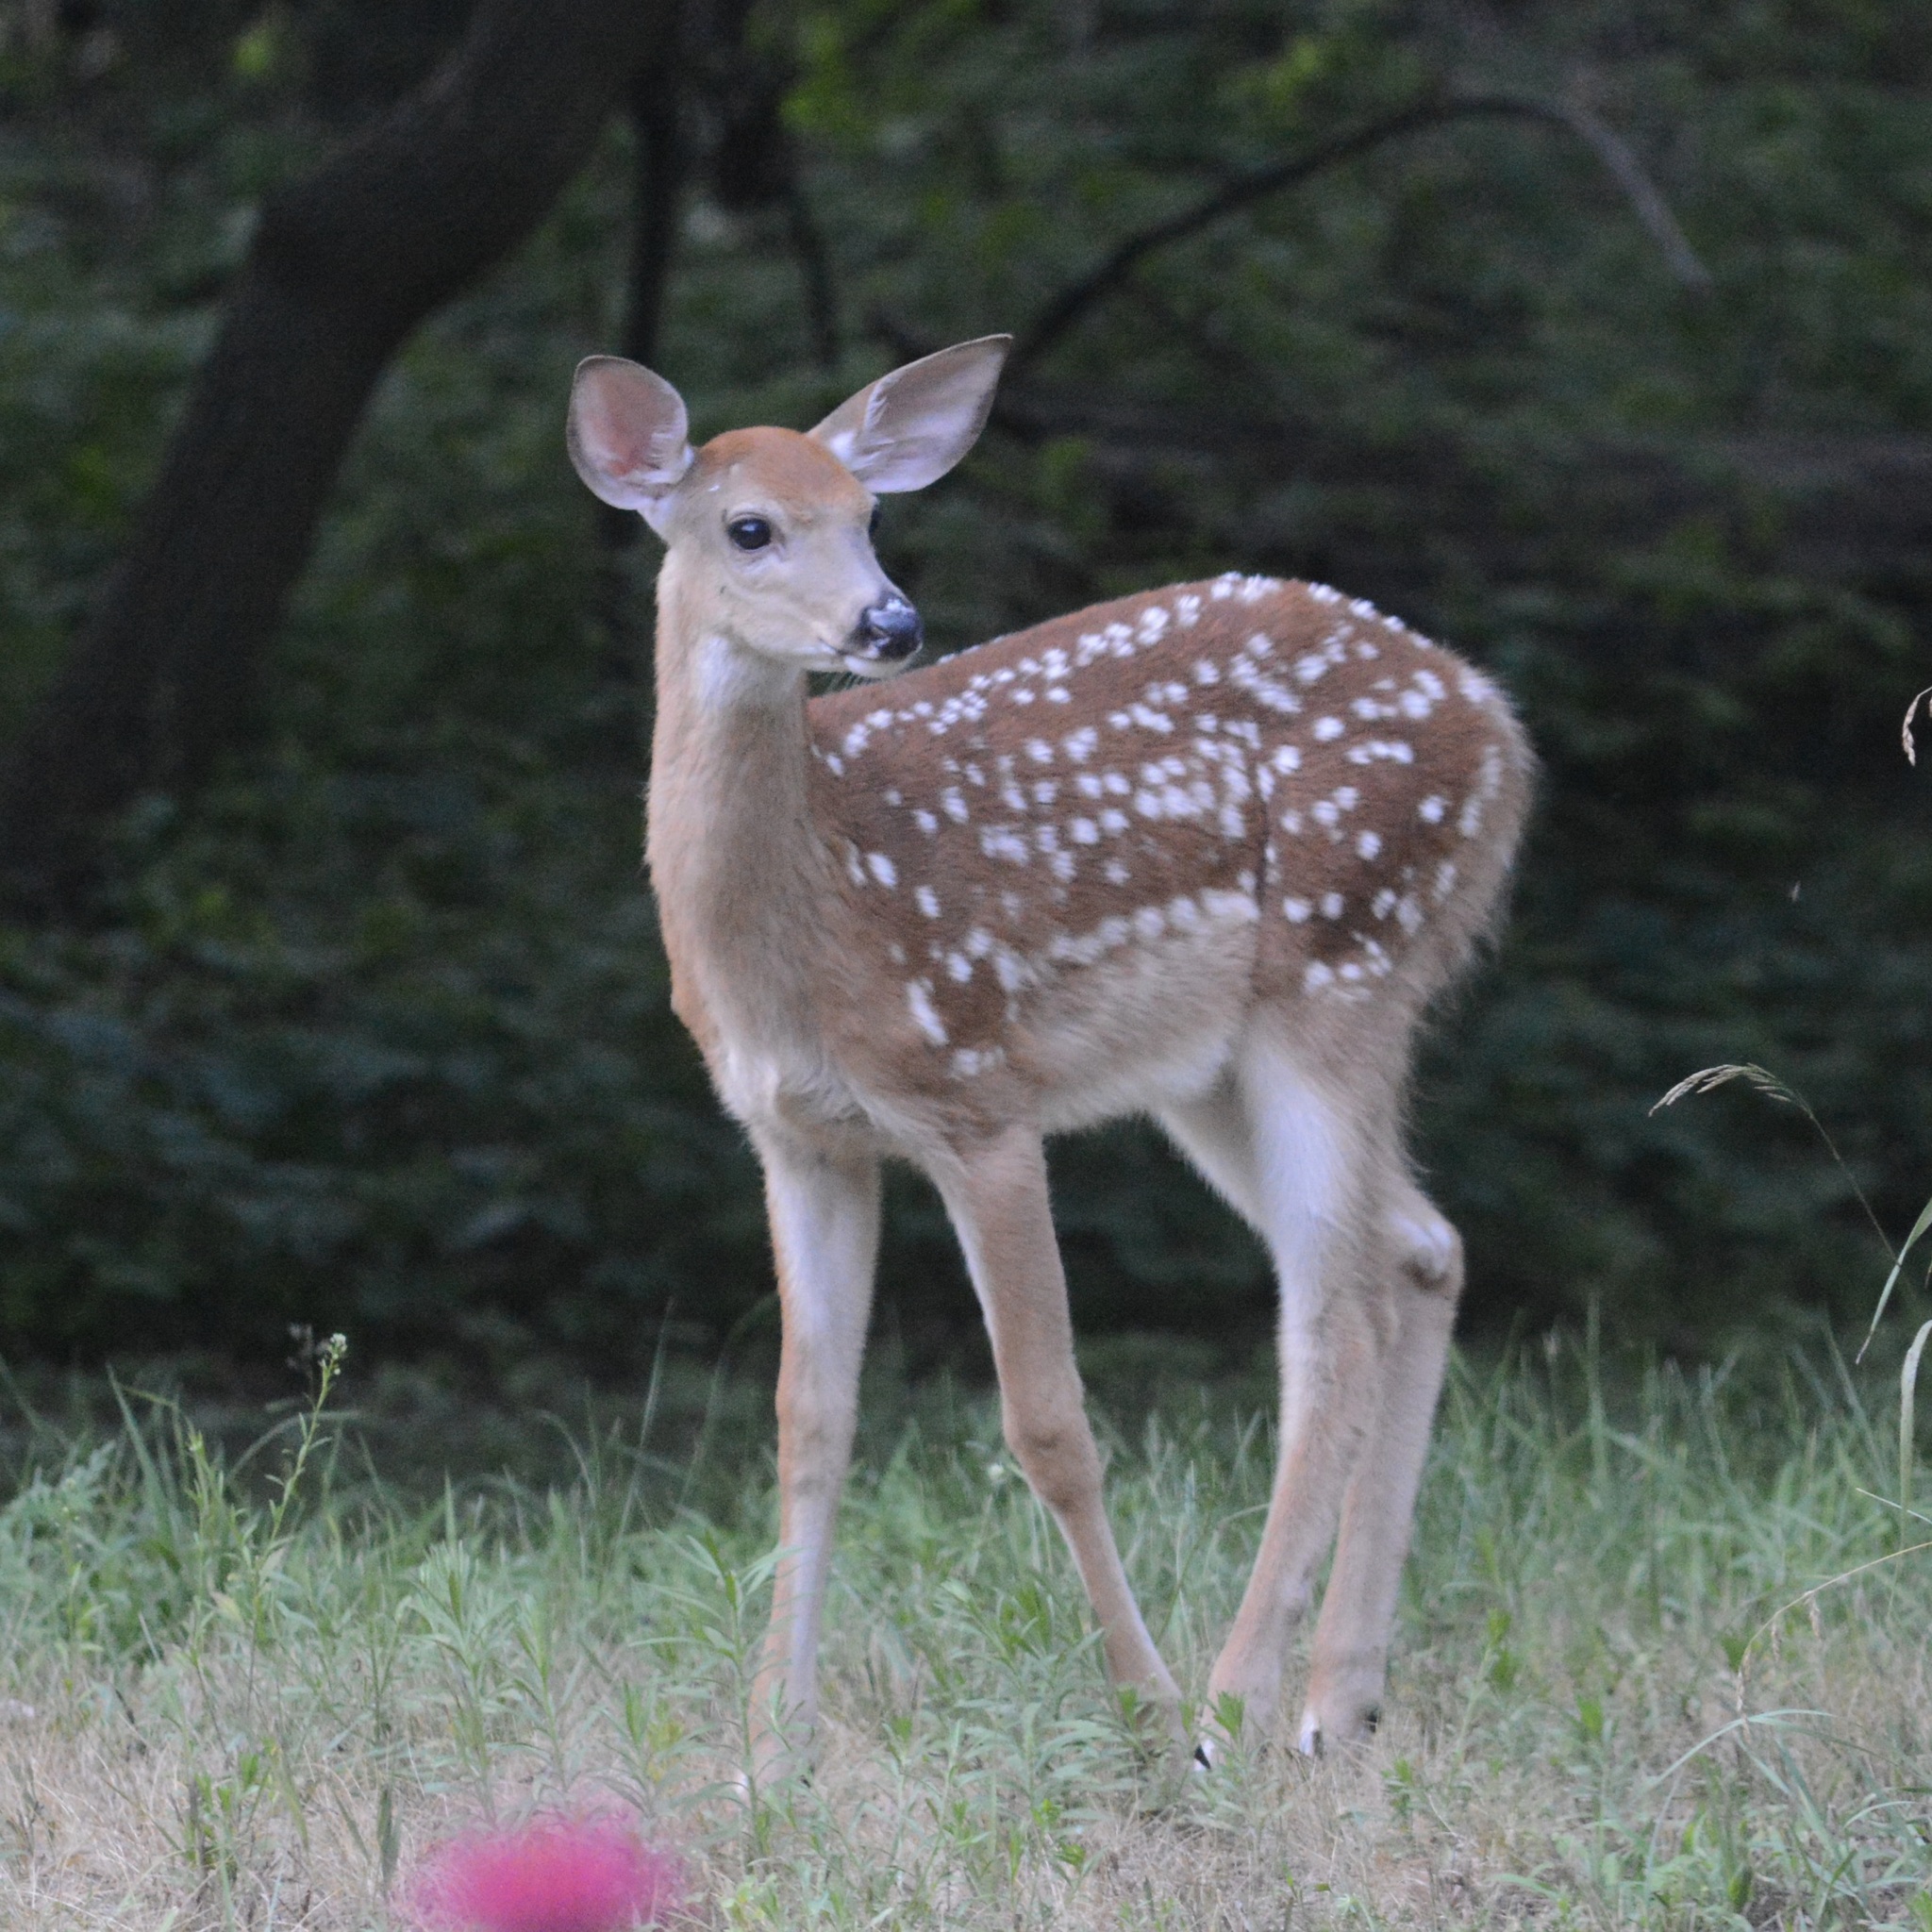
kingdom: Animalia
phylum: Chordata
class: Mammalia
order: Artiodactyla
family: Cervidae
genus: Odocoileus
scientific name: Odocoileus virginianus
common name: White-tailed deer
